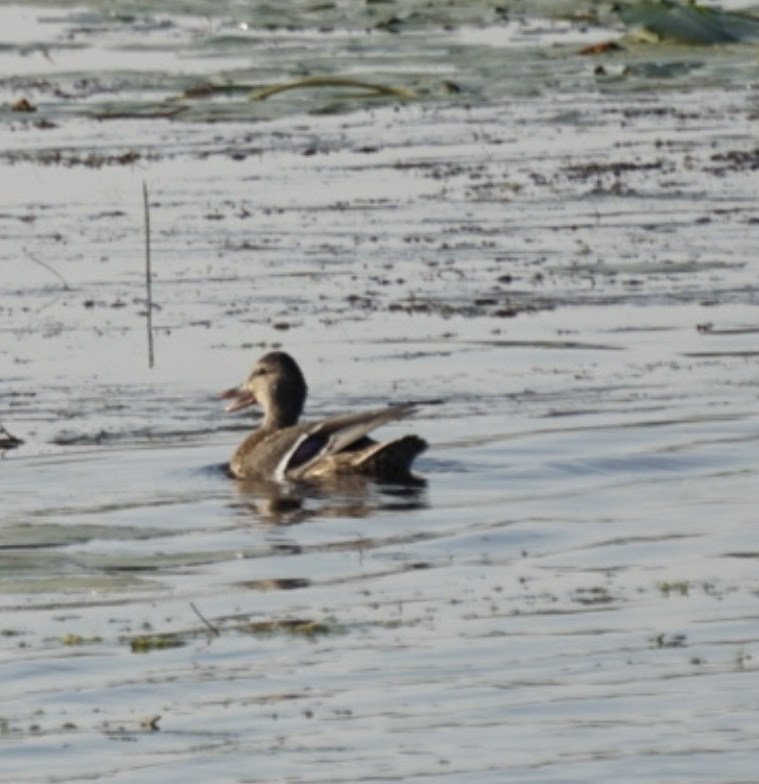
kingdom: Animalia
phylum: Chordata
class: Aves
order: Anseriformes
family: Anatidae
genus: Anas
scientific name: Anas platyrhynchos
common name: Mallard
